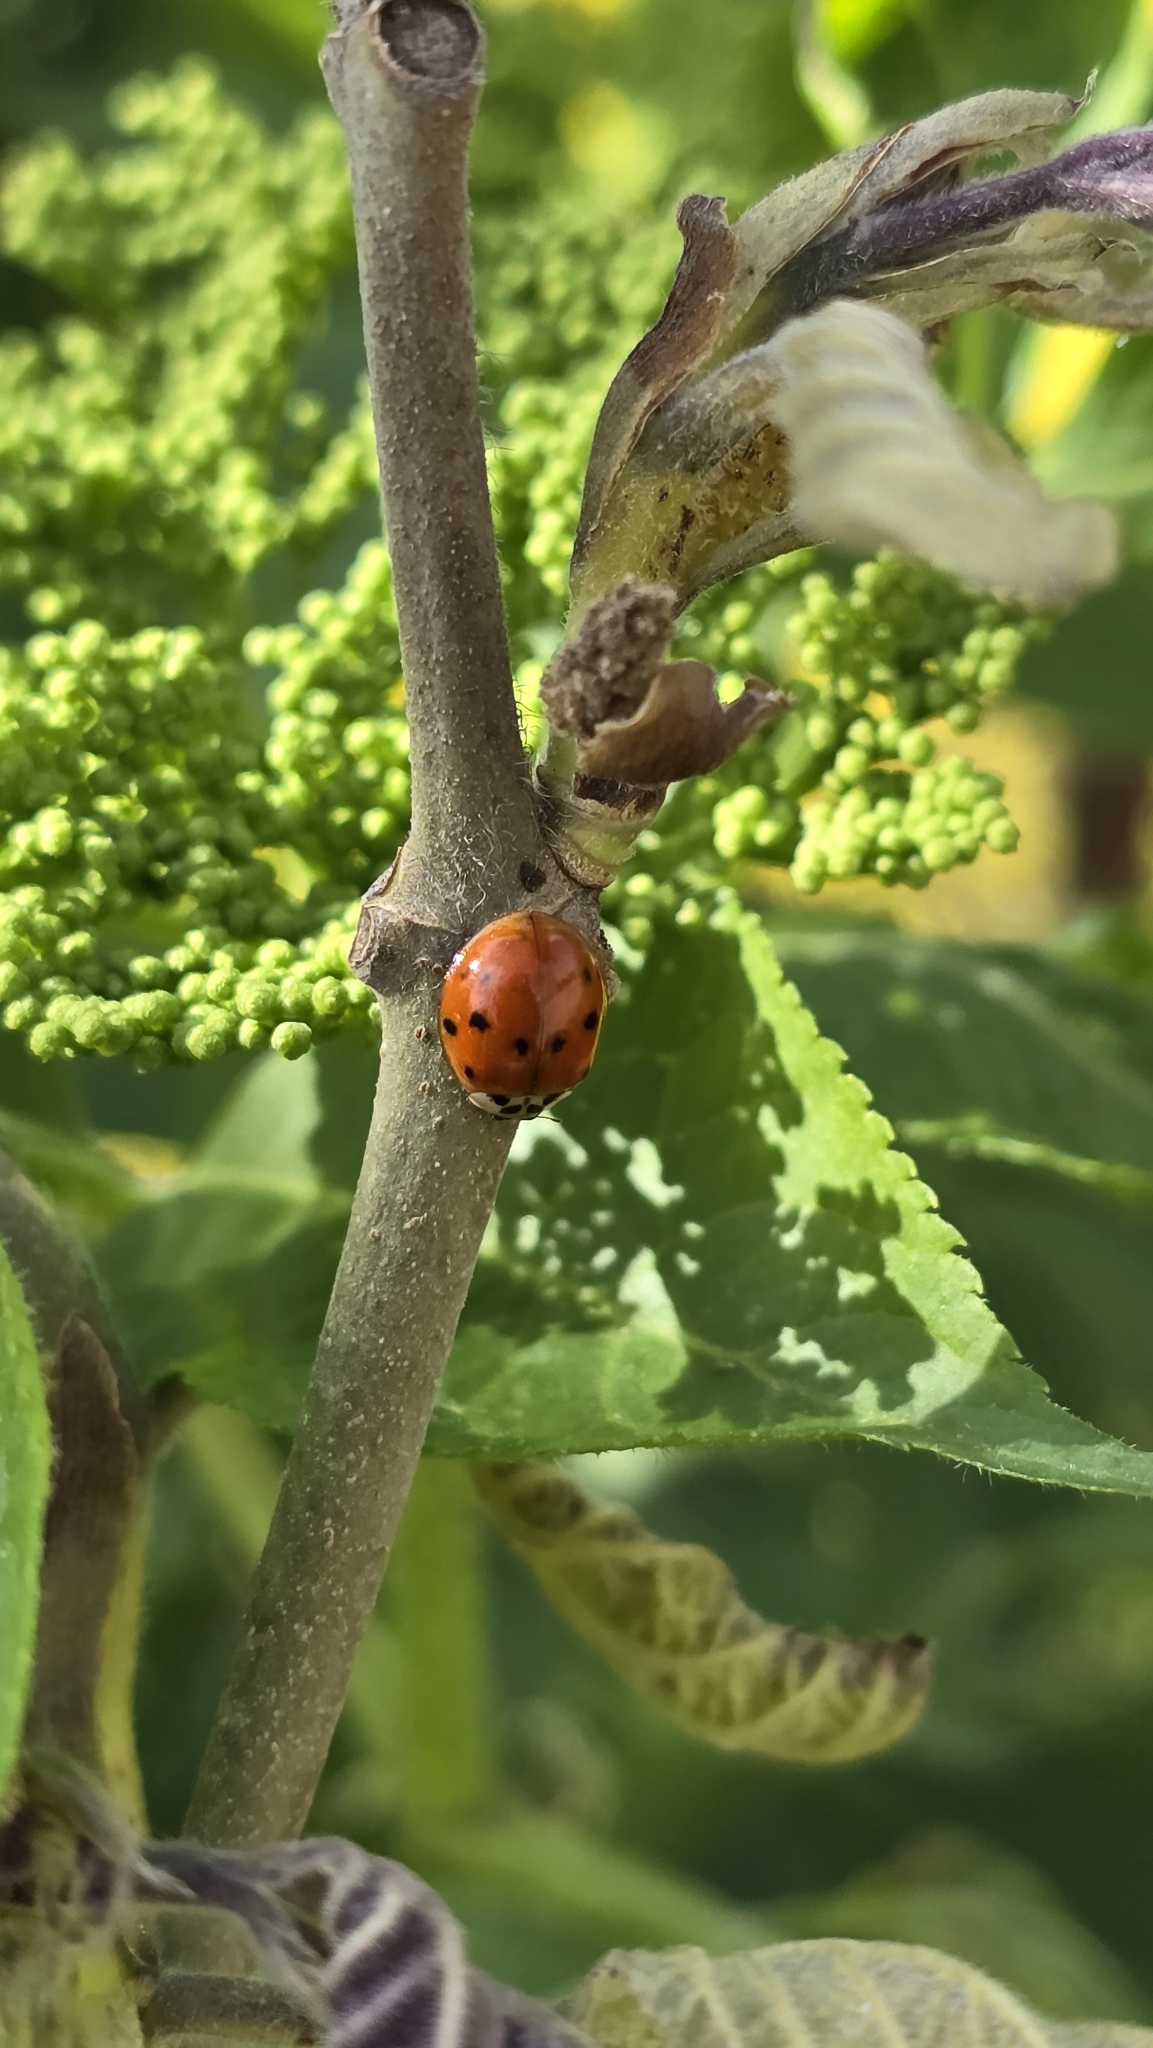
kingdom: Animalia
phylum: Arthropoda
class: Insecta
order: Coleoptera
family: Coccinellidae
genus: Harmonia
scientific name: Harmonia axyridis
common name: Harlequin ladybird
